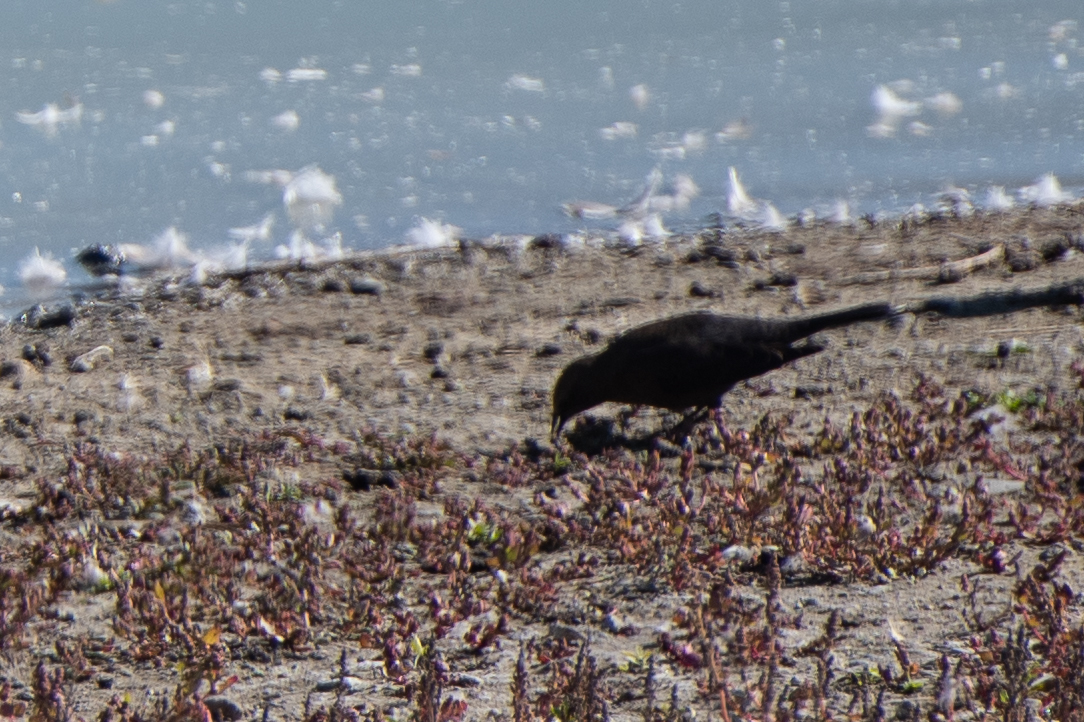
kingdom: Animalia
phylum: Chordata
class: Aves
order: Passeriformes
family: Icteridae
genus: Euphagus
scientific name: Euphagus cyanocephalus
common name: Brewer's blackbird
